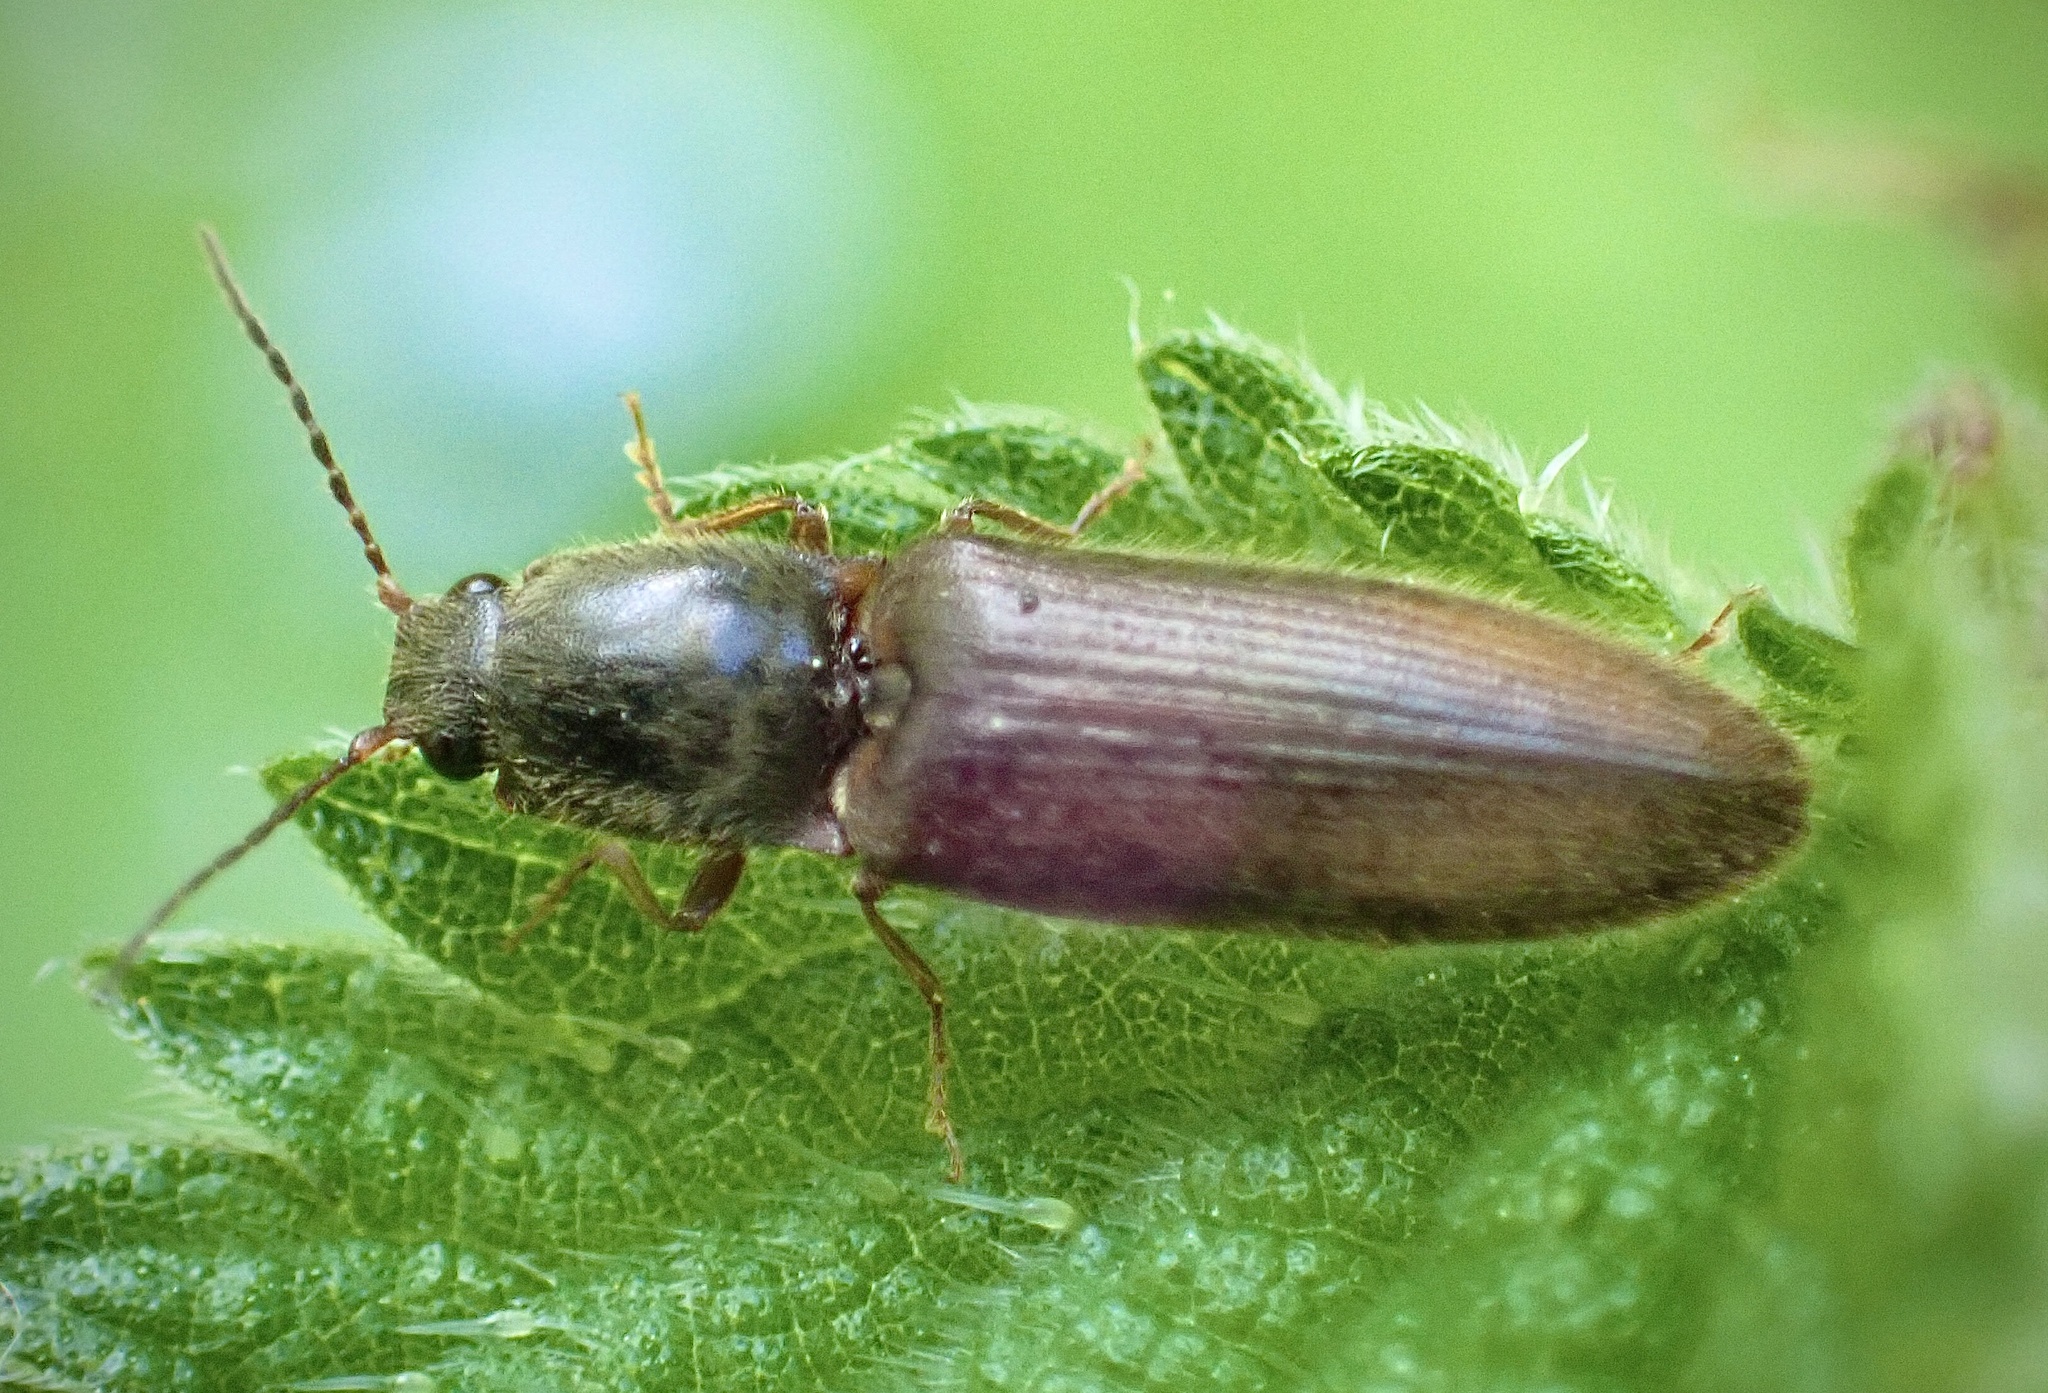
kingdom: Animalia
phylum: Arthropoda
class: Insecta
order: Coleoptera
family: Elateridae
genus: Athous
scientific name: Athous haemorrhoidalis
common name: Red-brown click beetle
